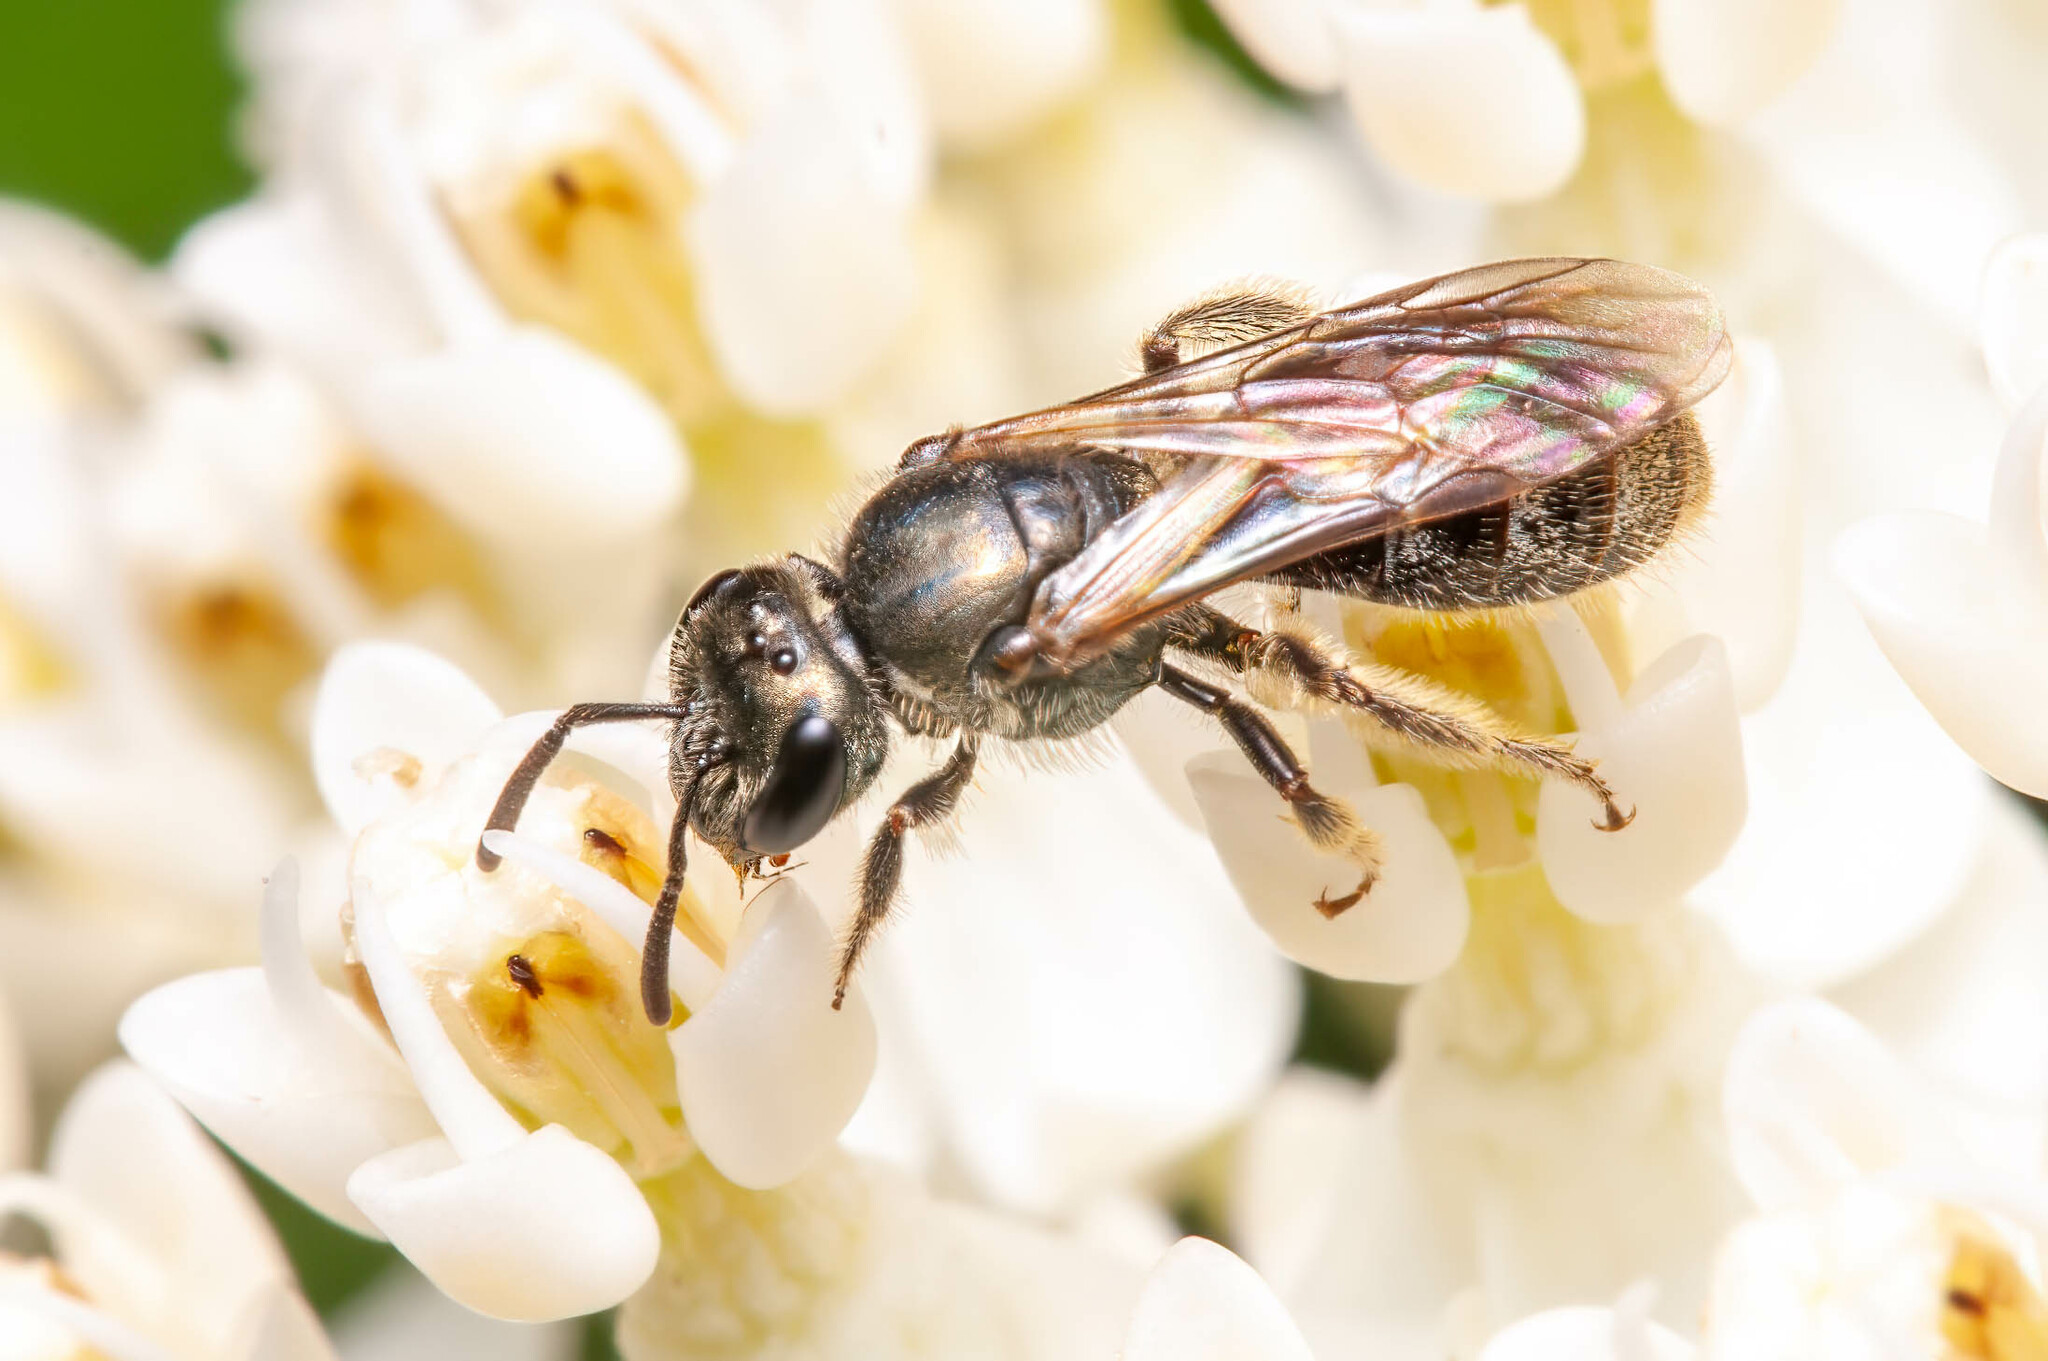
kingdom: Animalia
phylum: Arthropoda
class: Insecta
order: Hymenoptera
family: Halictidae
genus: Lasioglossum
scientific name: Lasioglossum laevissimum
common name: Very smooth sweat bee
